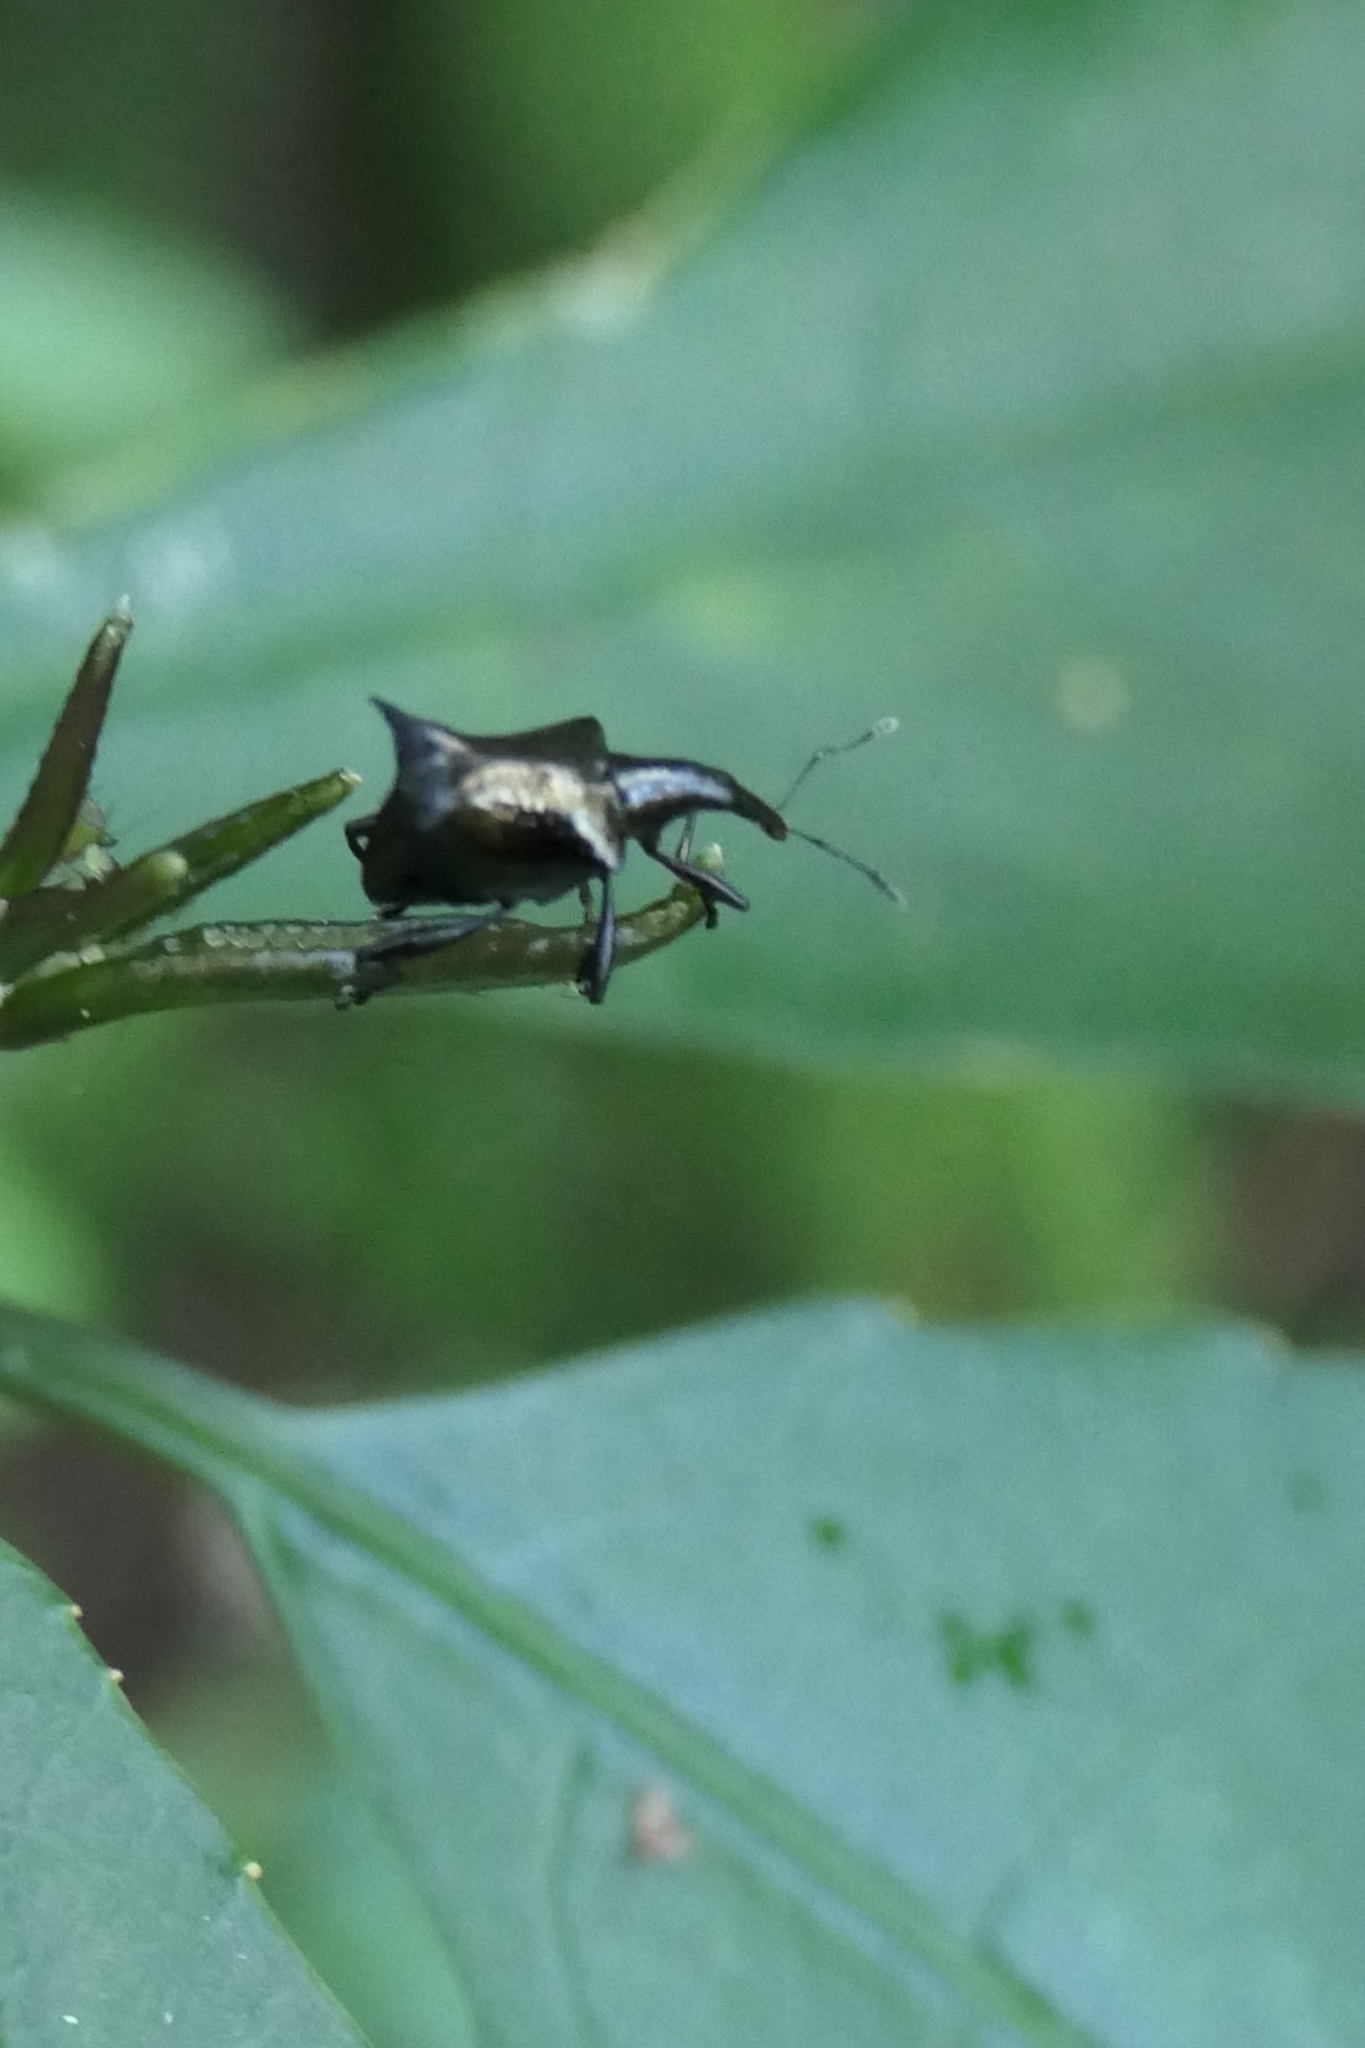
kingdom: Animalia
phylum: Arthropoda
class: Insecta
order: Coleoptera
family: Curculionidae
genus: Scolopterus
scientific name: Scolopterus penicillatus
